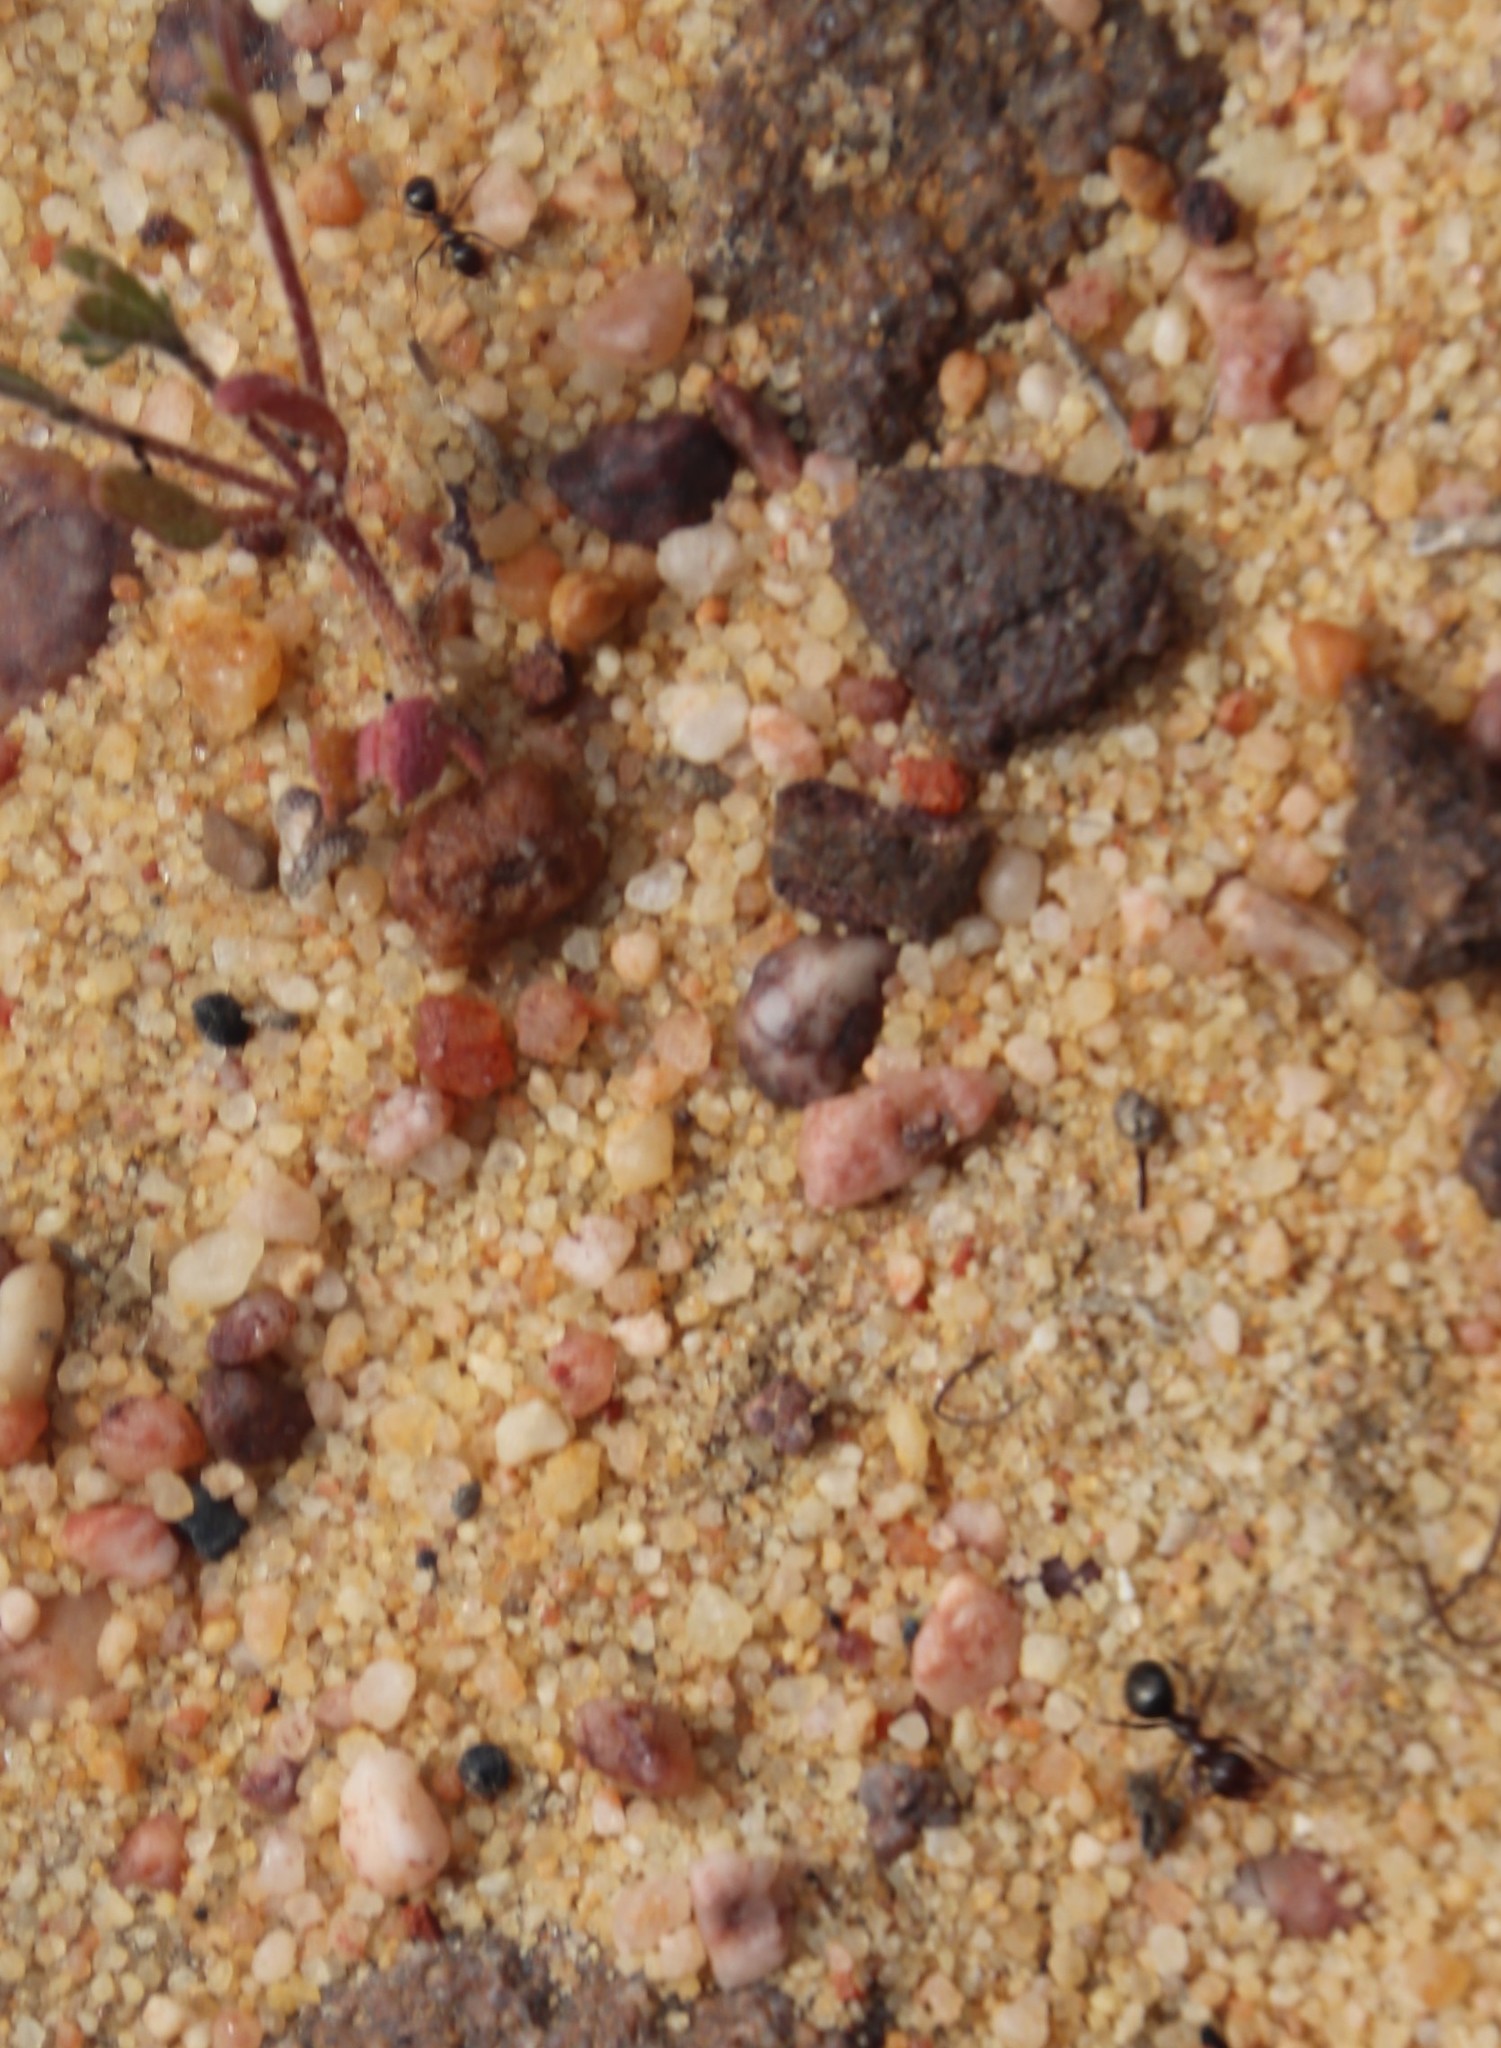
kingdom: Animalia
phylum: Arthropoda
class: Insecta
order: Hymenoptera
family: Formicidae
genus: Anoplolepis
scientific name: Anoplolepis steingroeveri
